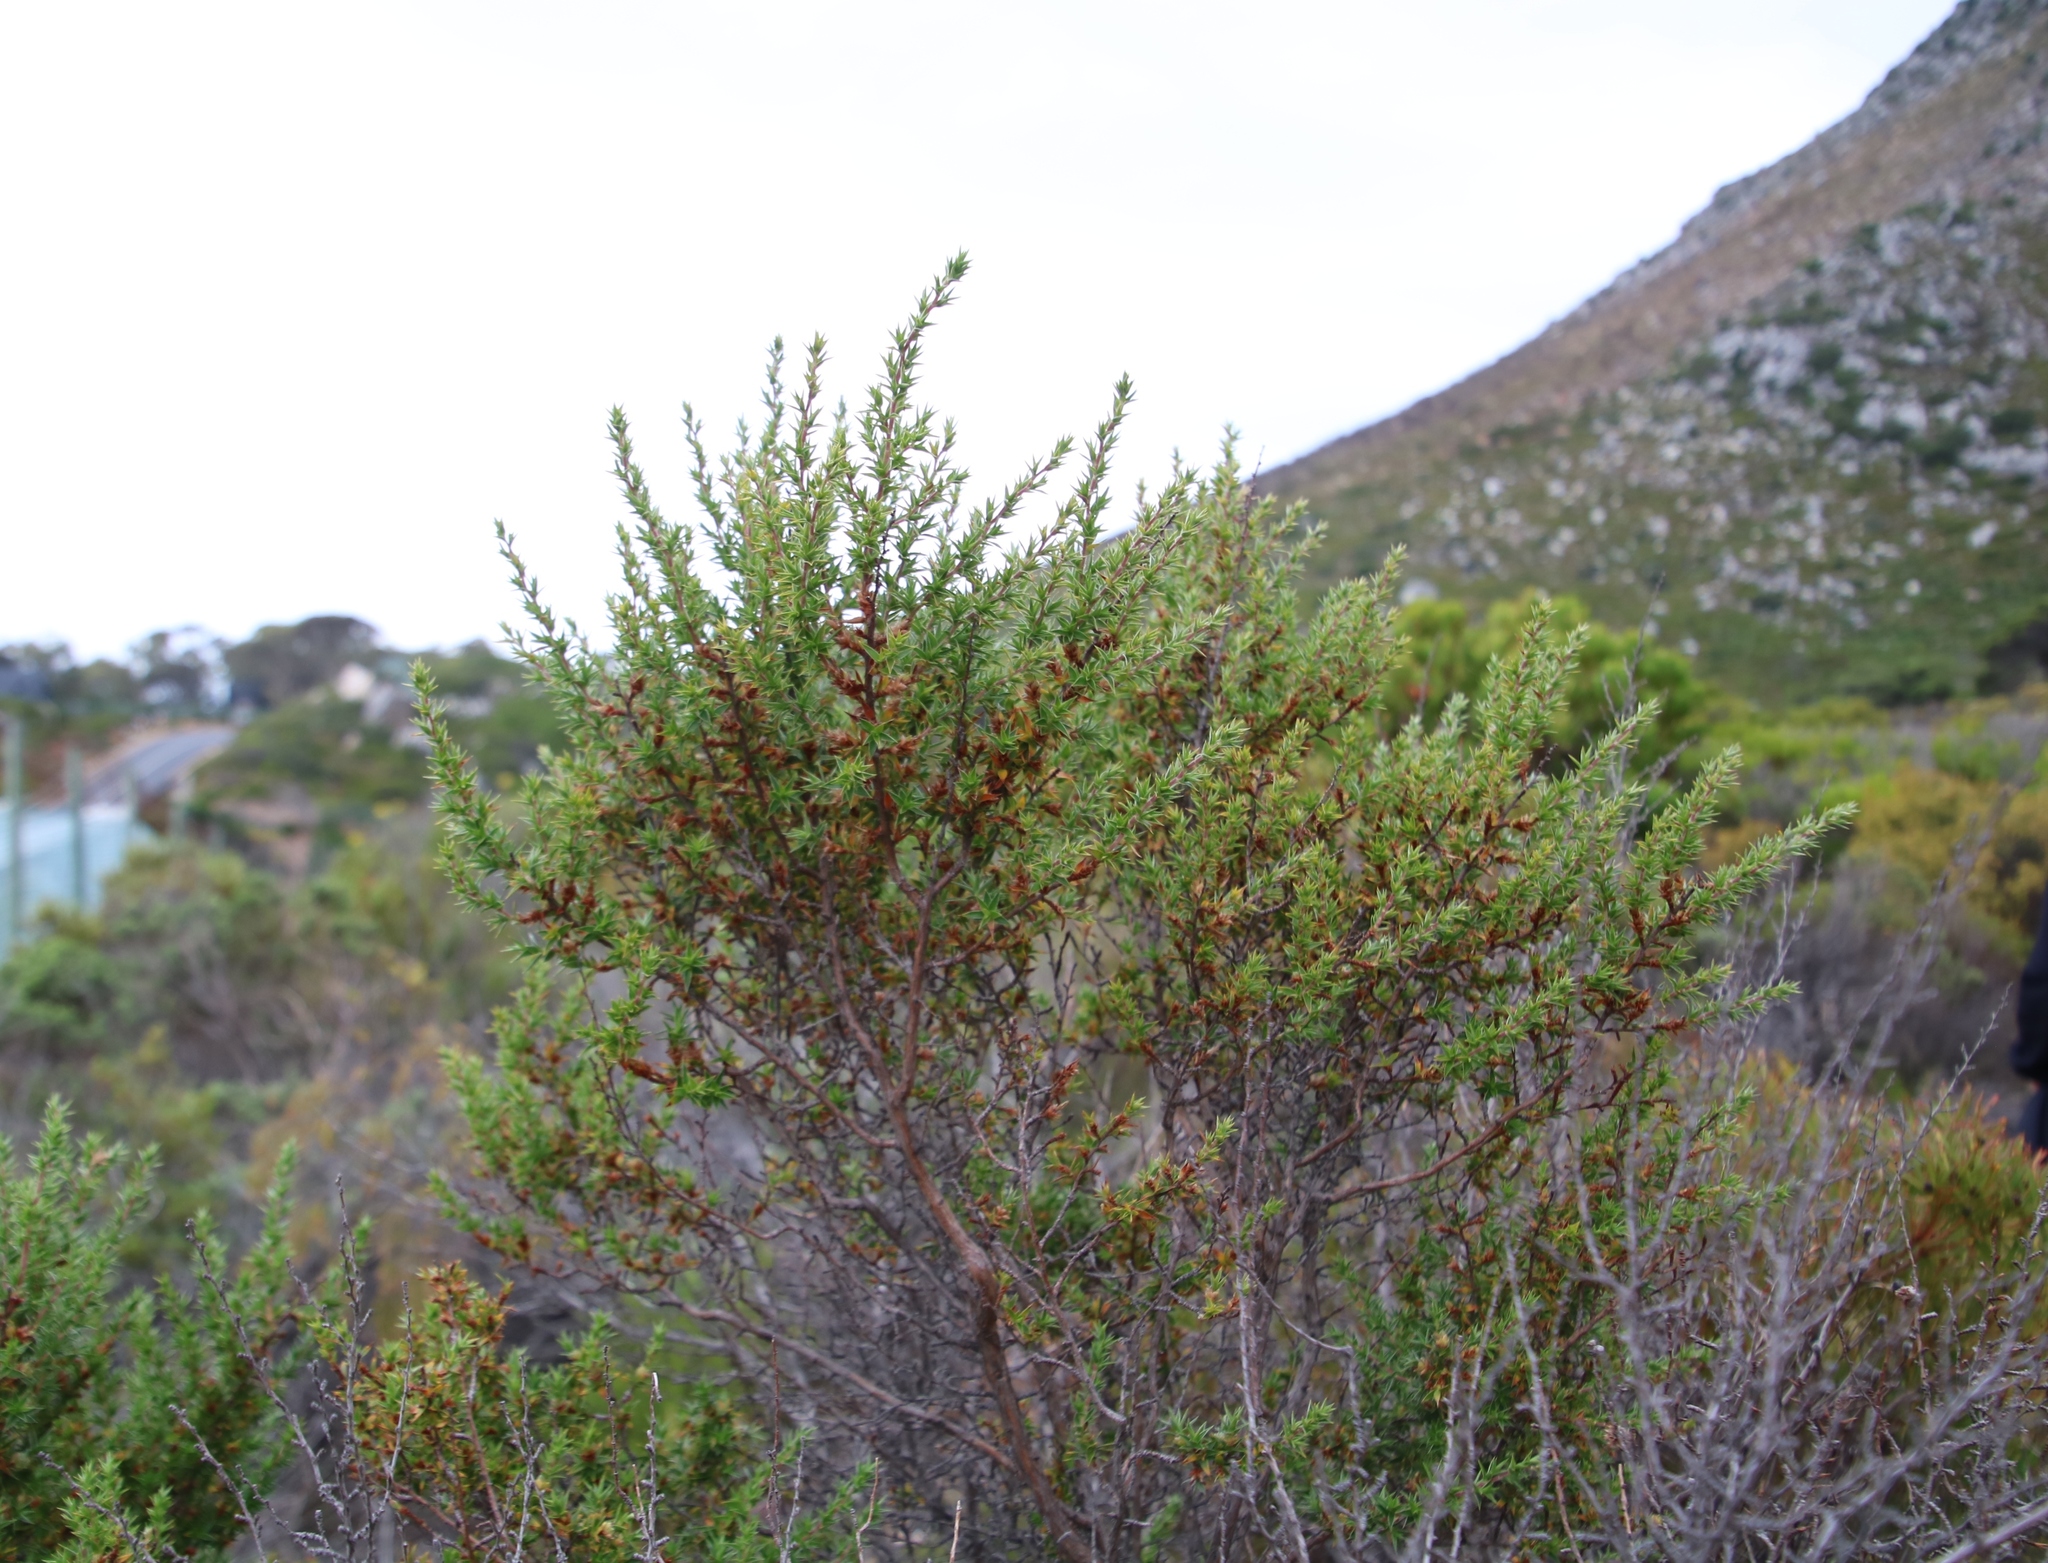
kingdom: Plantae
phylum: Tracheophyta
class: Magnoliopsida
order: Rosales
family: Rosaceae
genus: Cliffortia
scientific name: Cliffortia ruscifolia
